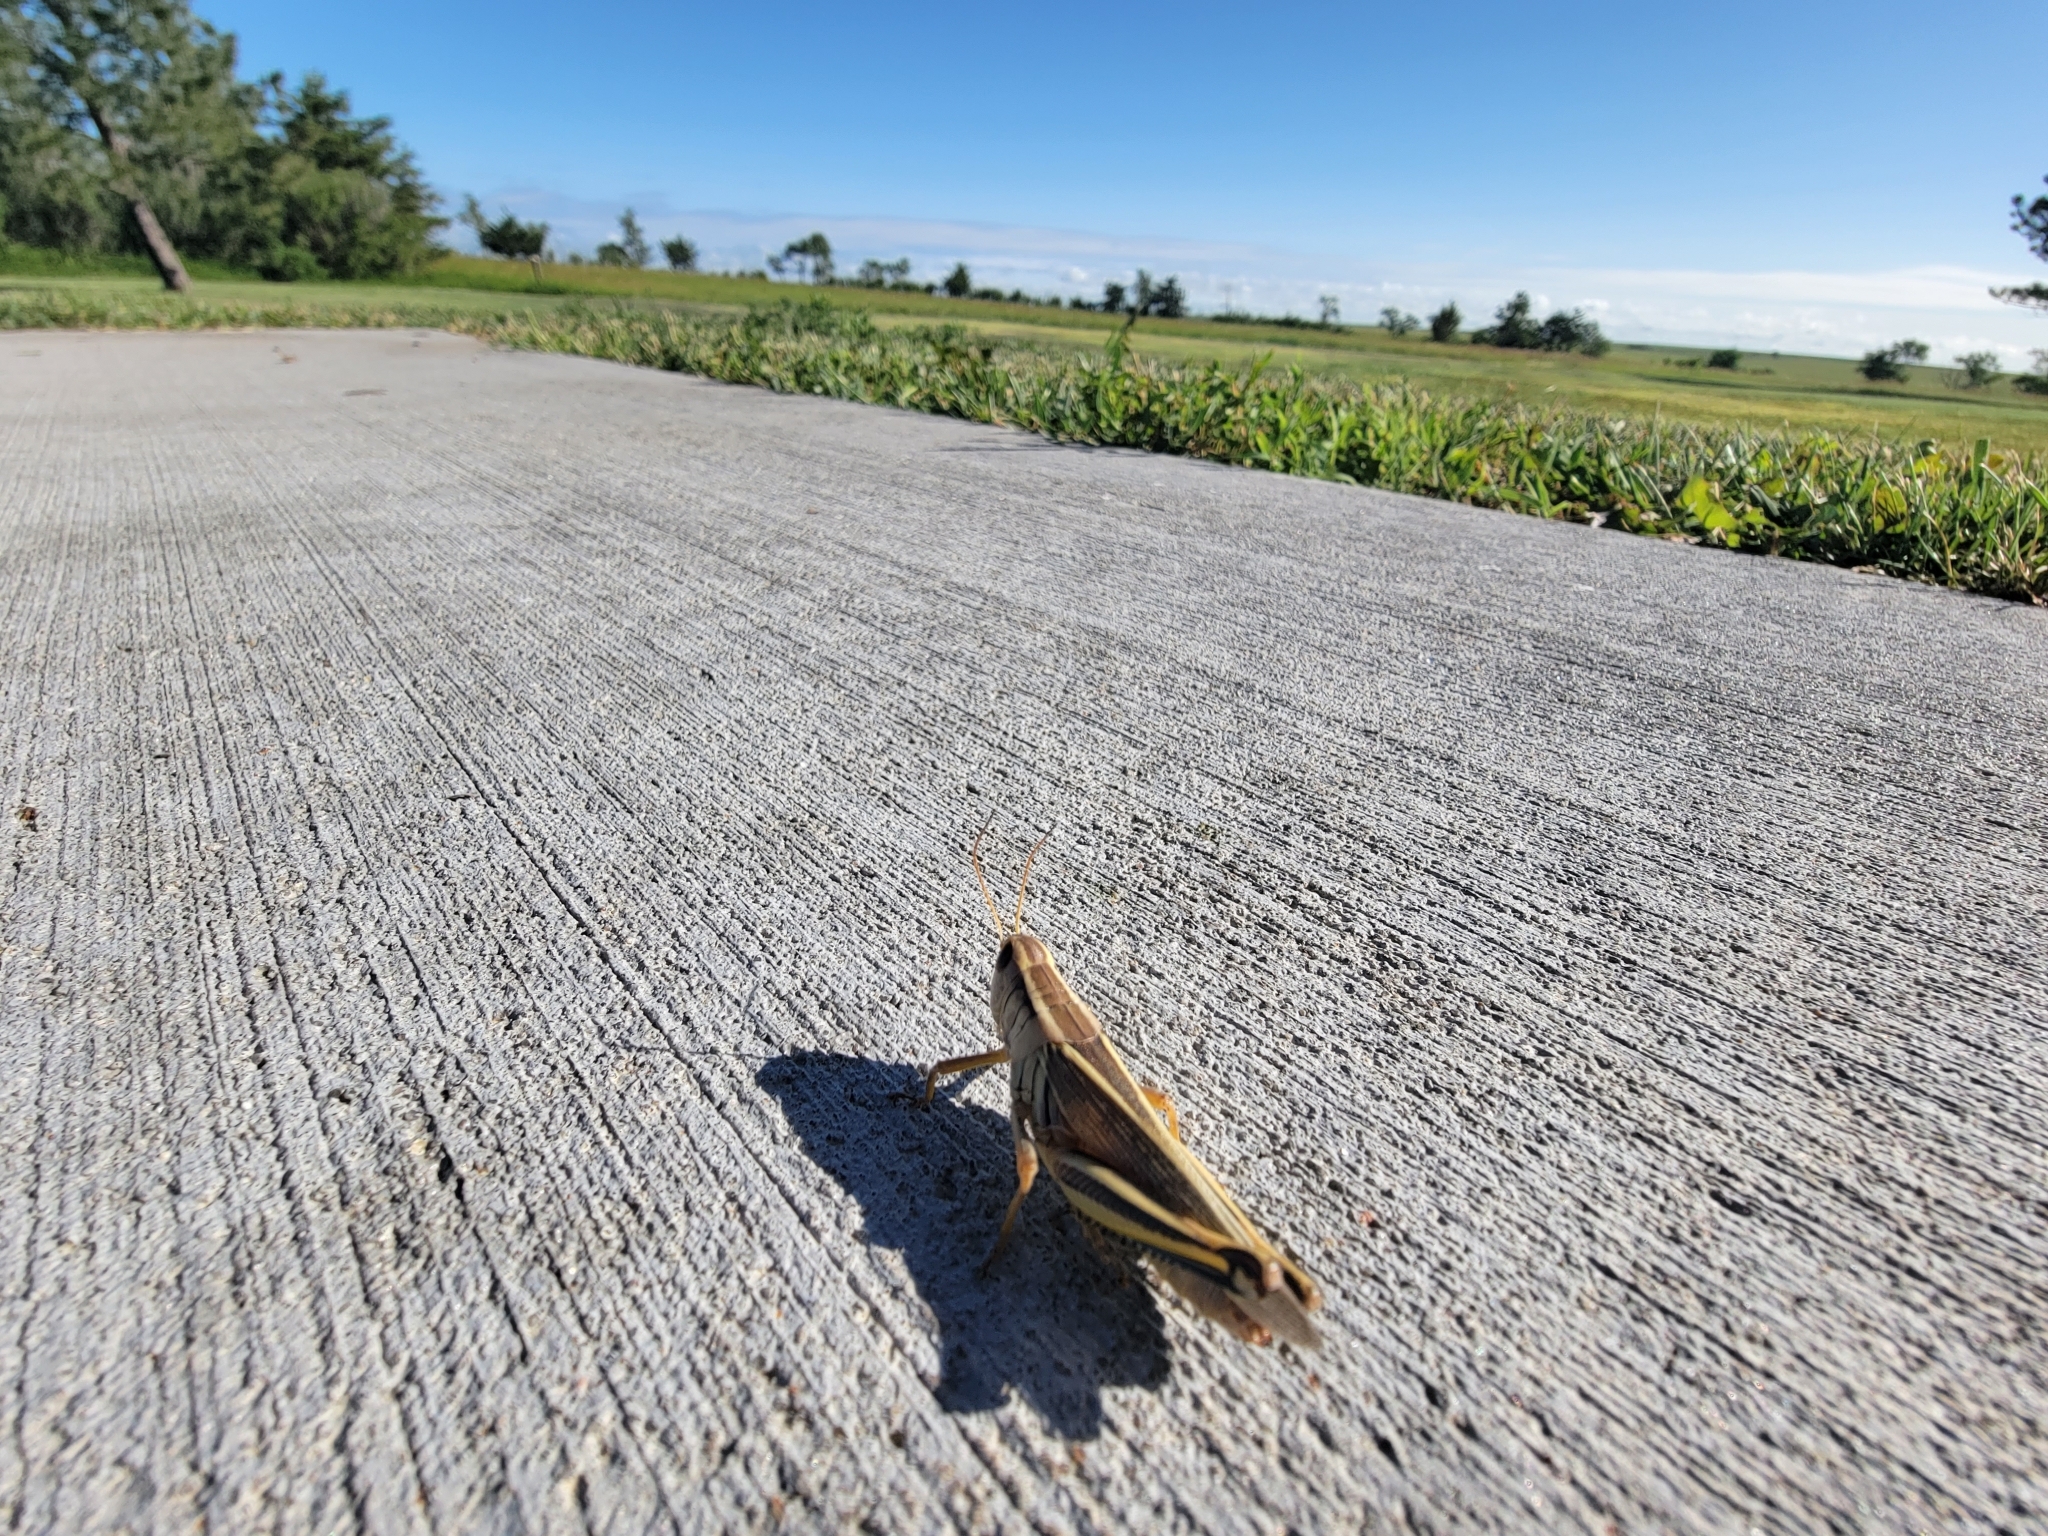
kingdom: Animalia
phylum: Arthropoda
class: Insecta
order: Orthoptera
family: Acrididae
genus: Melanoplus
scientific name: Melanoplus bivittatus
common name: Two-striped grasshopper
